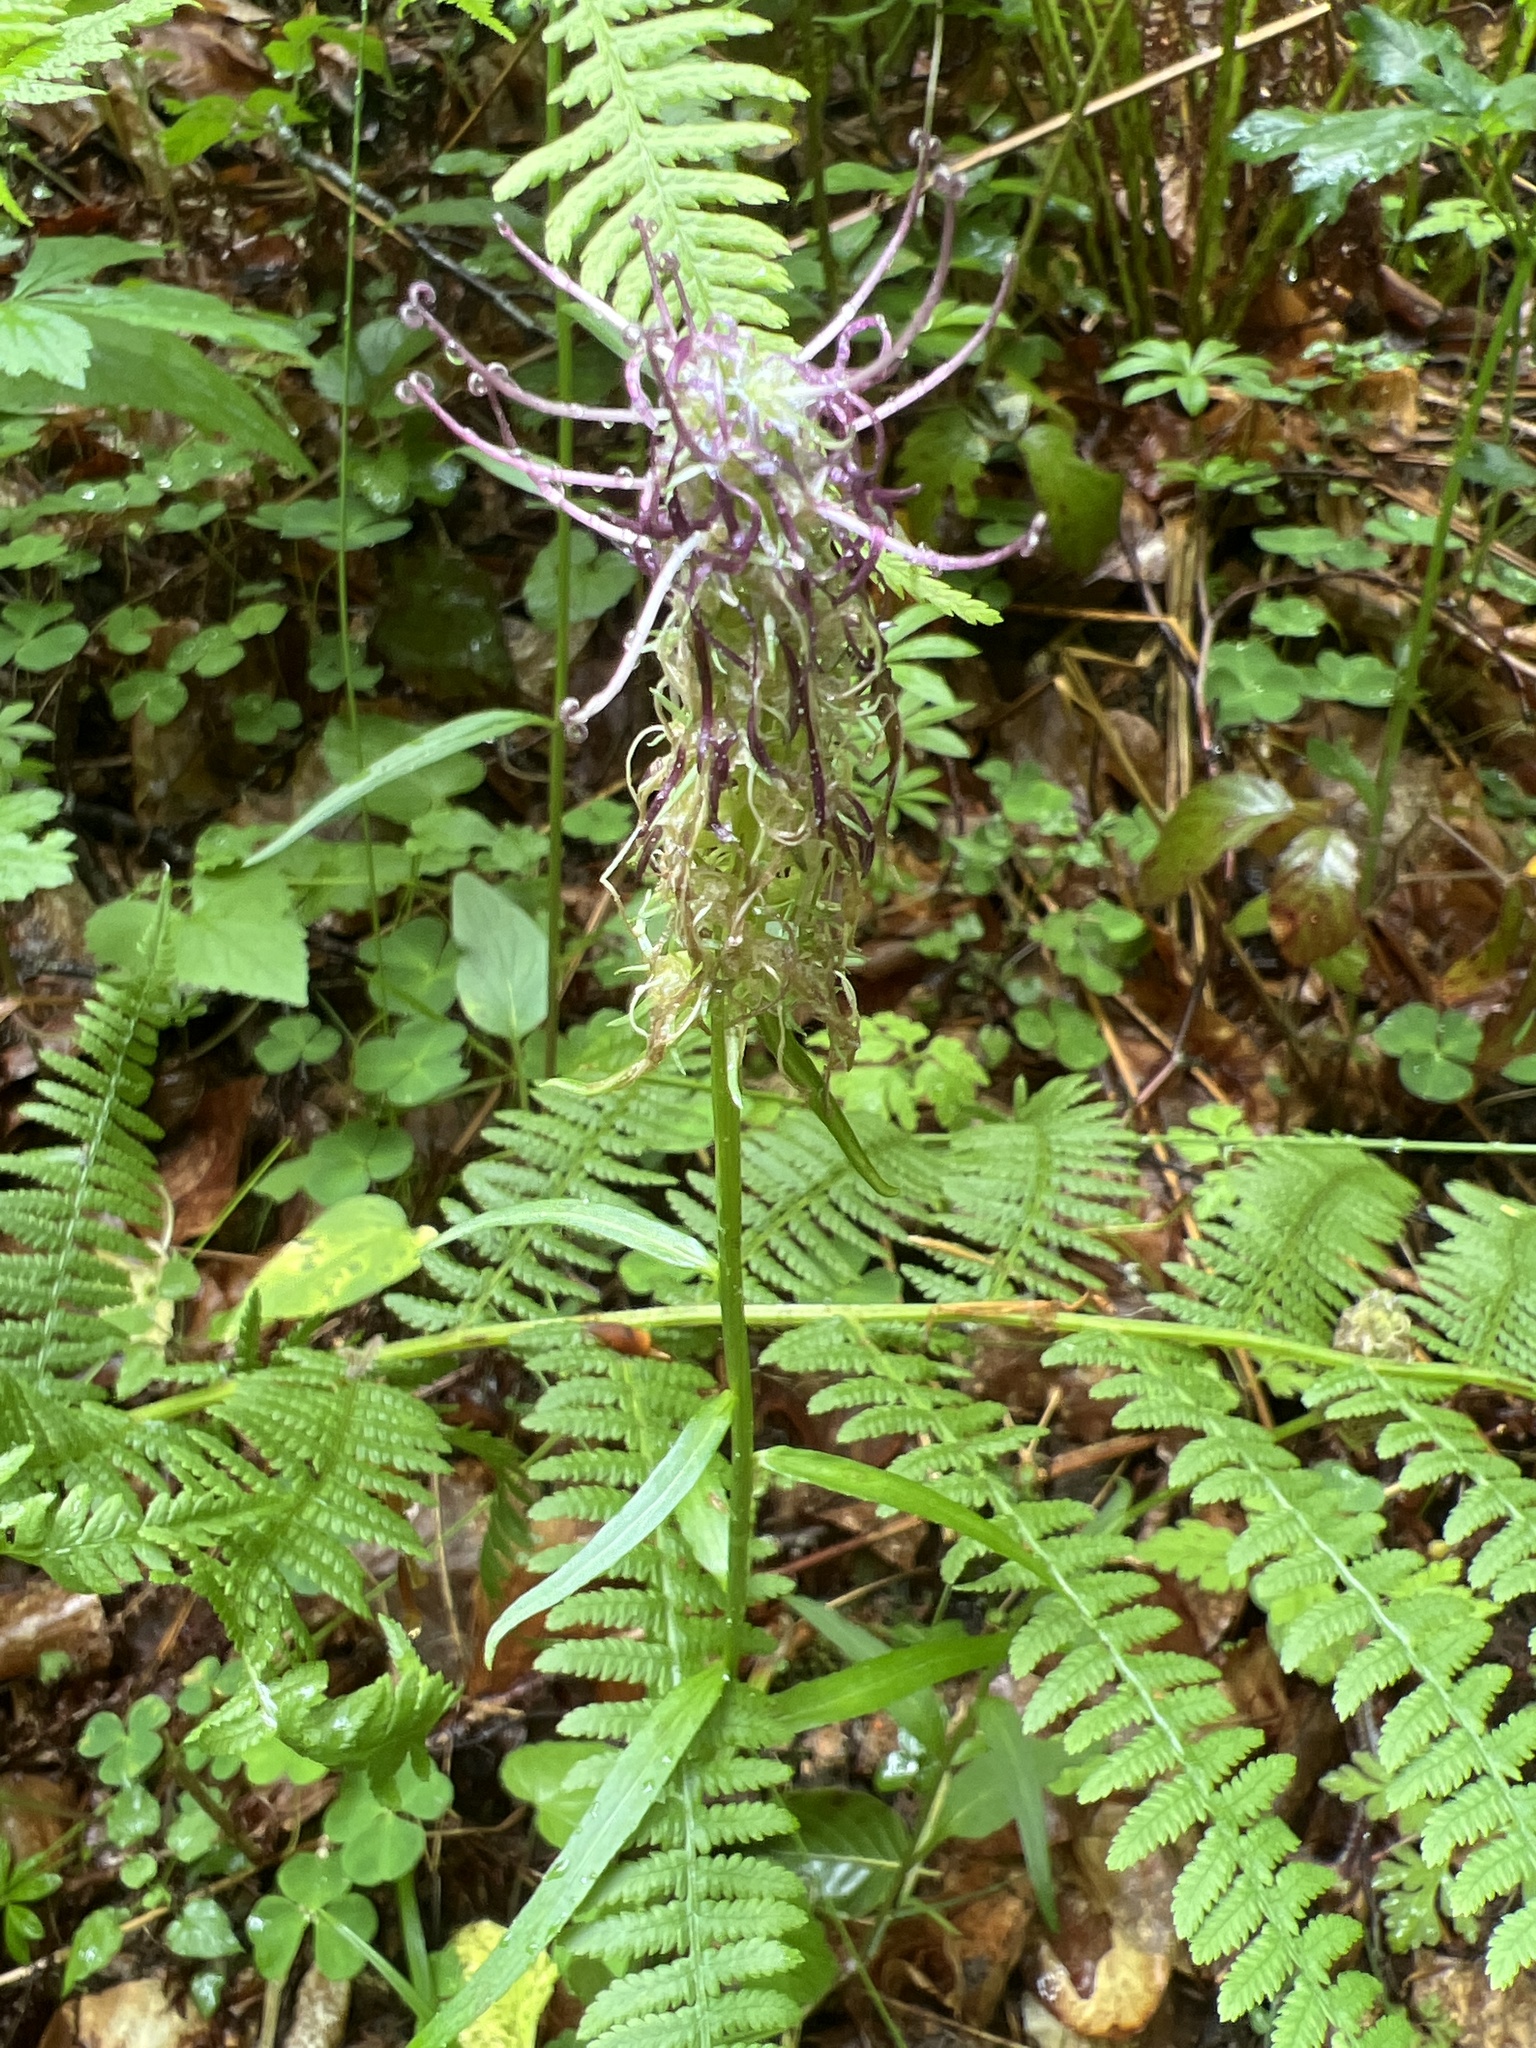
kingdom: Plantae
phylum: Tracheophyta
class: Magnoliopsida
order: Asterales
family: Campanulaceae
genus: Phyteuma
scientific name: Phyteuma nigrum
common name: Black rampion
